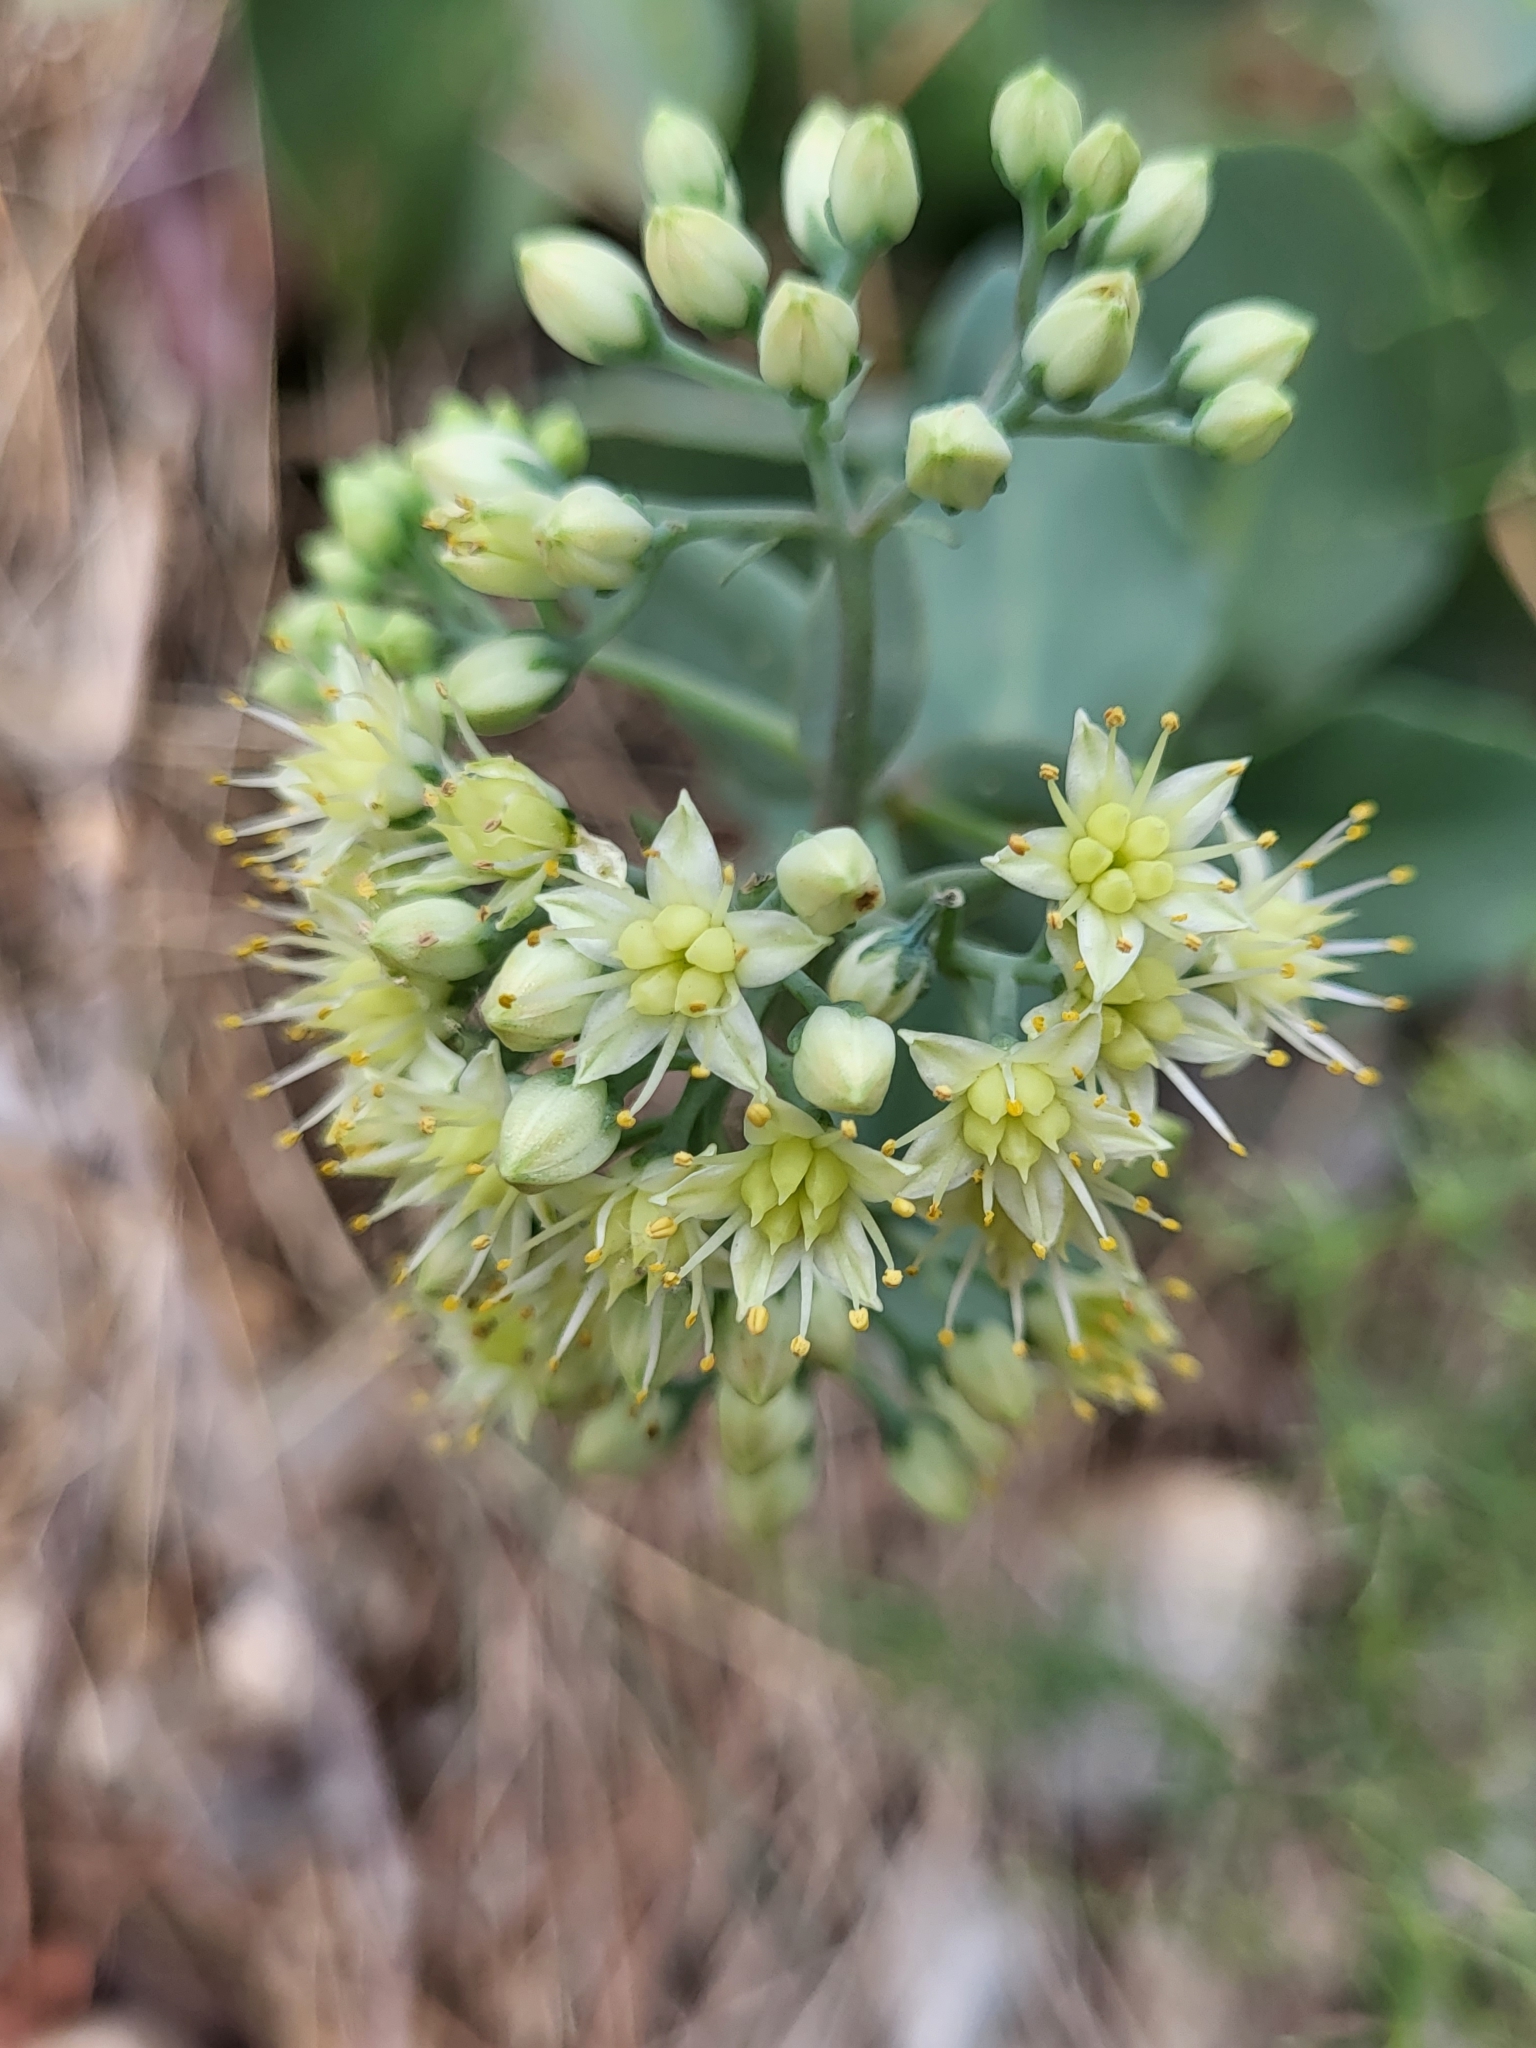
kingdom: Plantae
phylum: Tracheophyta
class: Magnoliopsida
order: Saxifragales
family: Crassulaceae
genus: Hylotelephium
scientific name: Hylotelephium maximum
